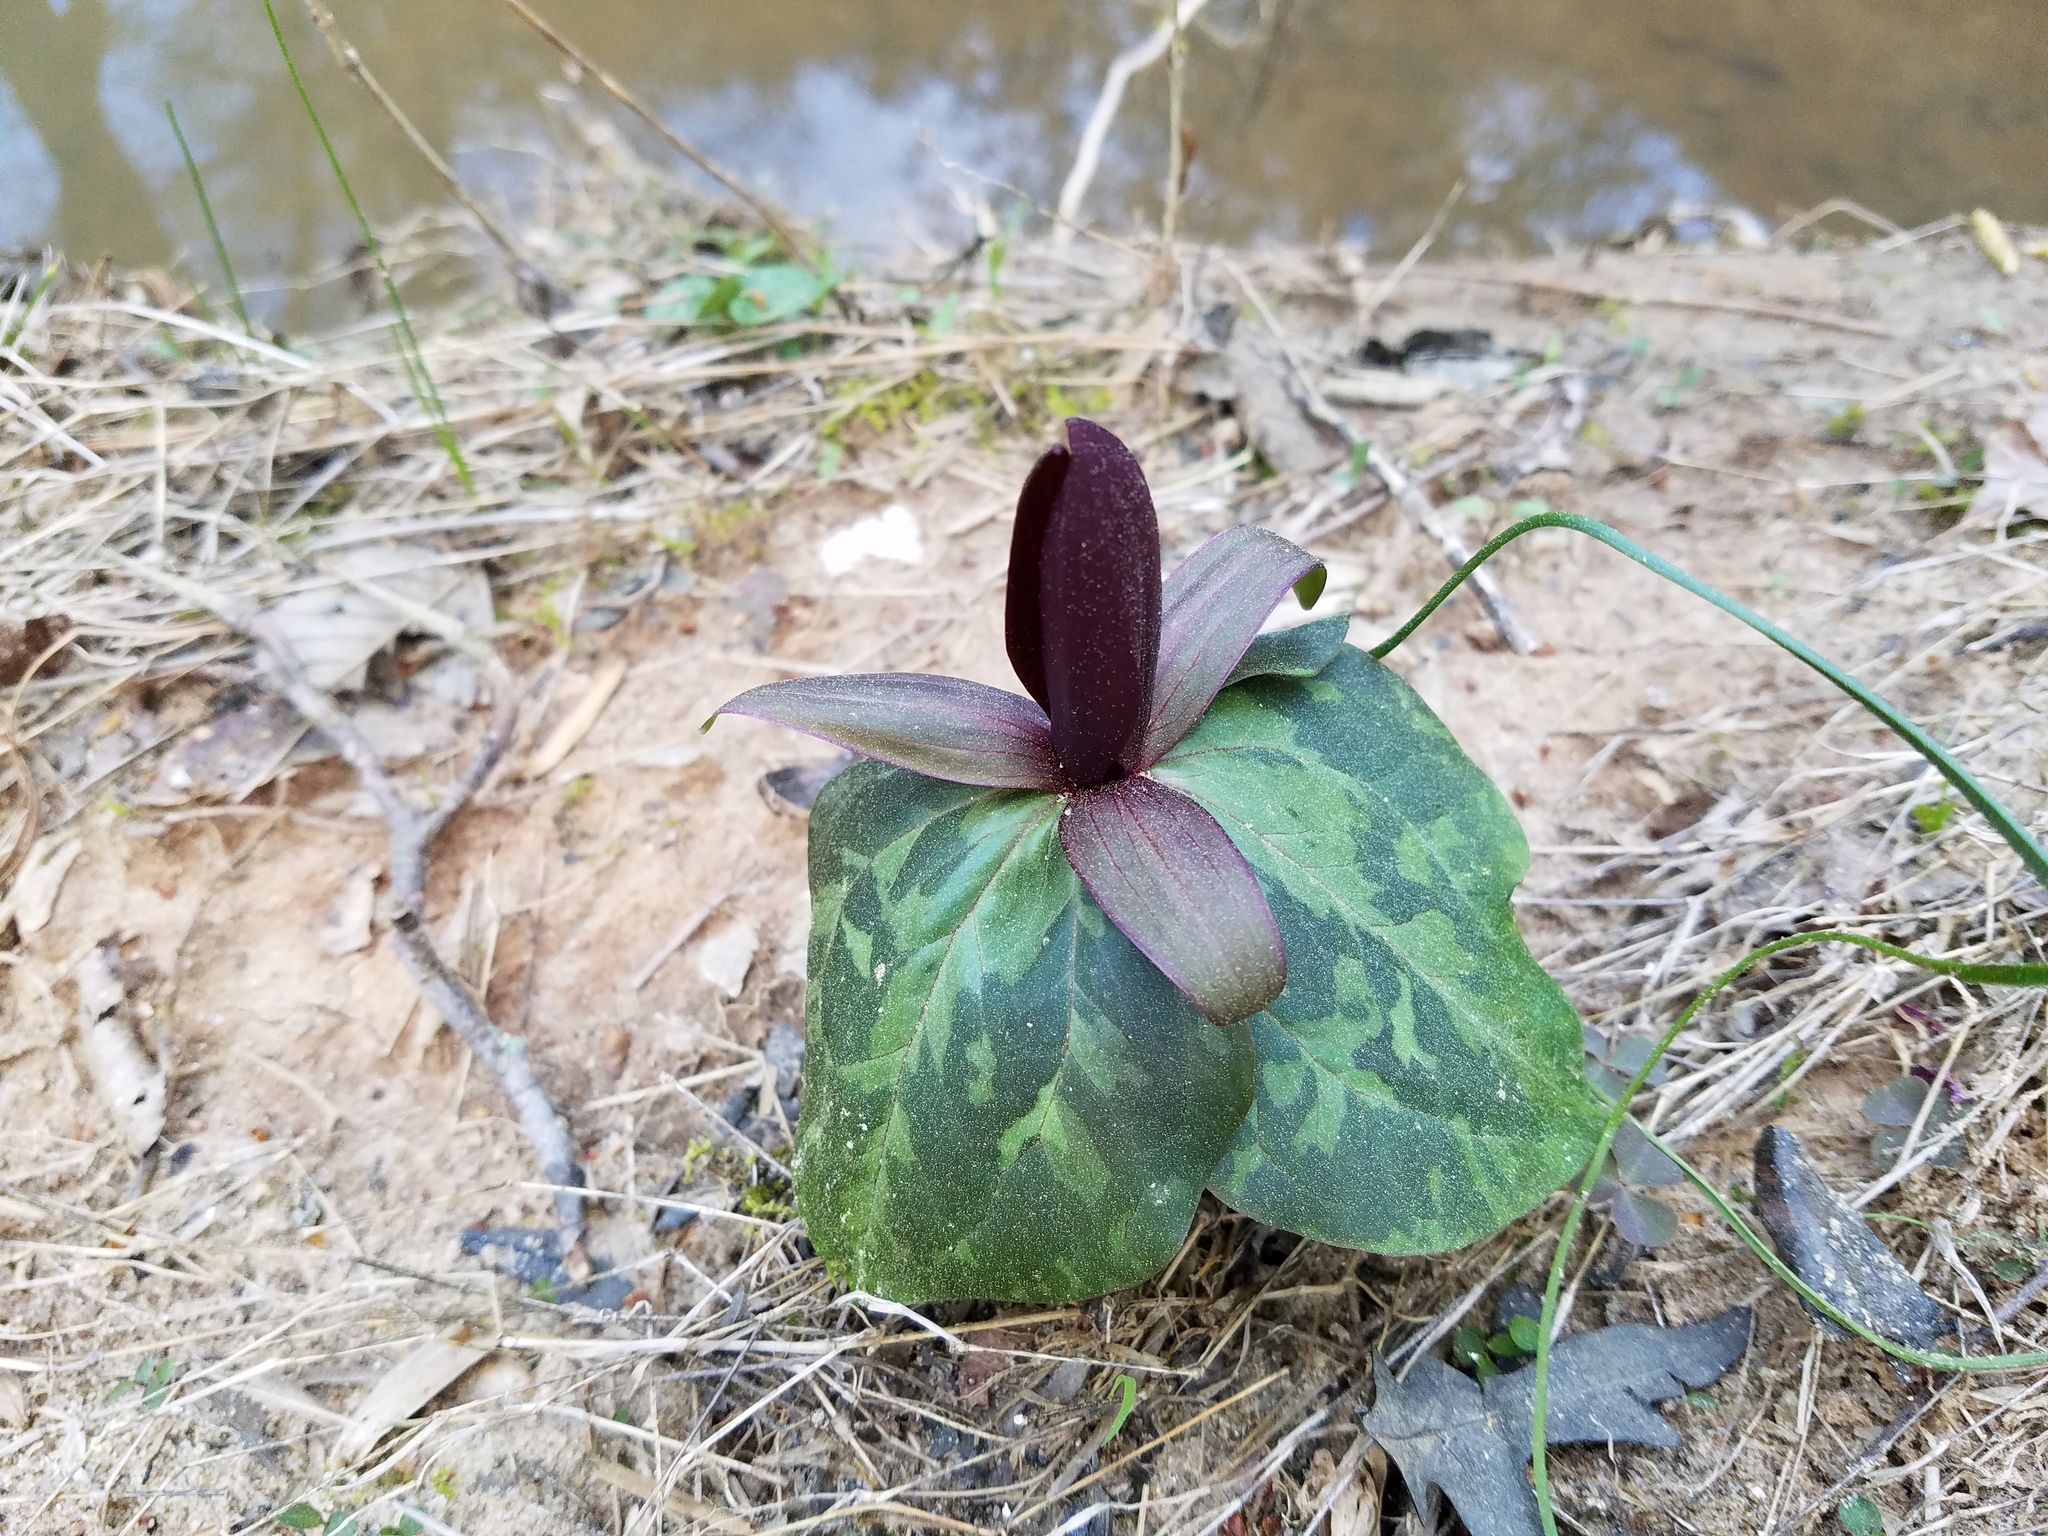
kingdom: Plantae
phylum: Tracheophyta
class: Liliopsida
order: Liliales
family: Melanthiaceae
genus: Trillium
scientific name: Trillium cuneatum
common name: Cuneate trillium
